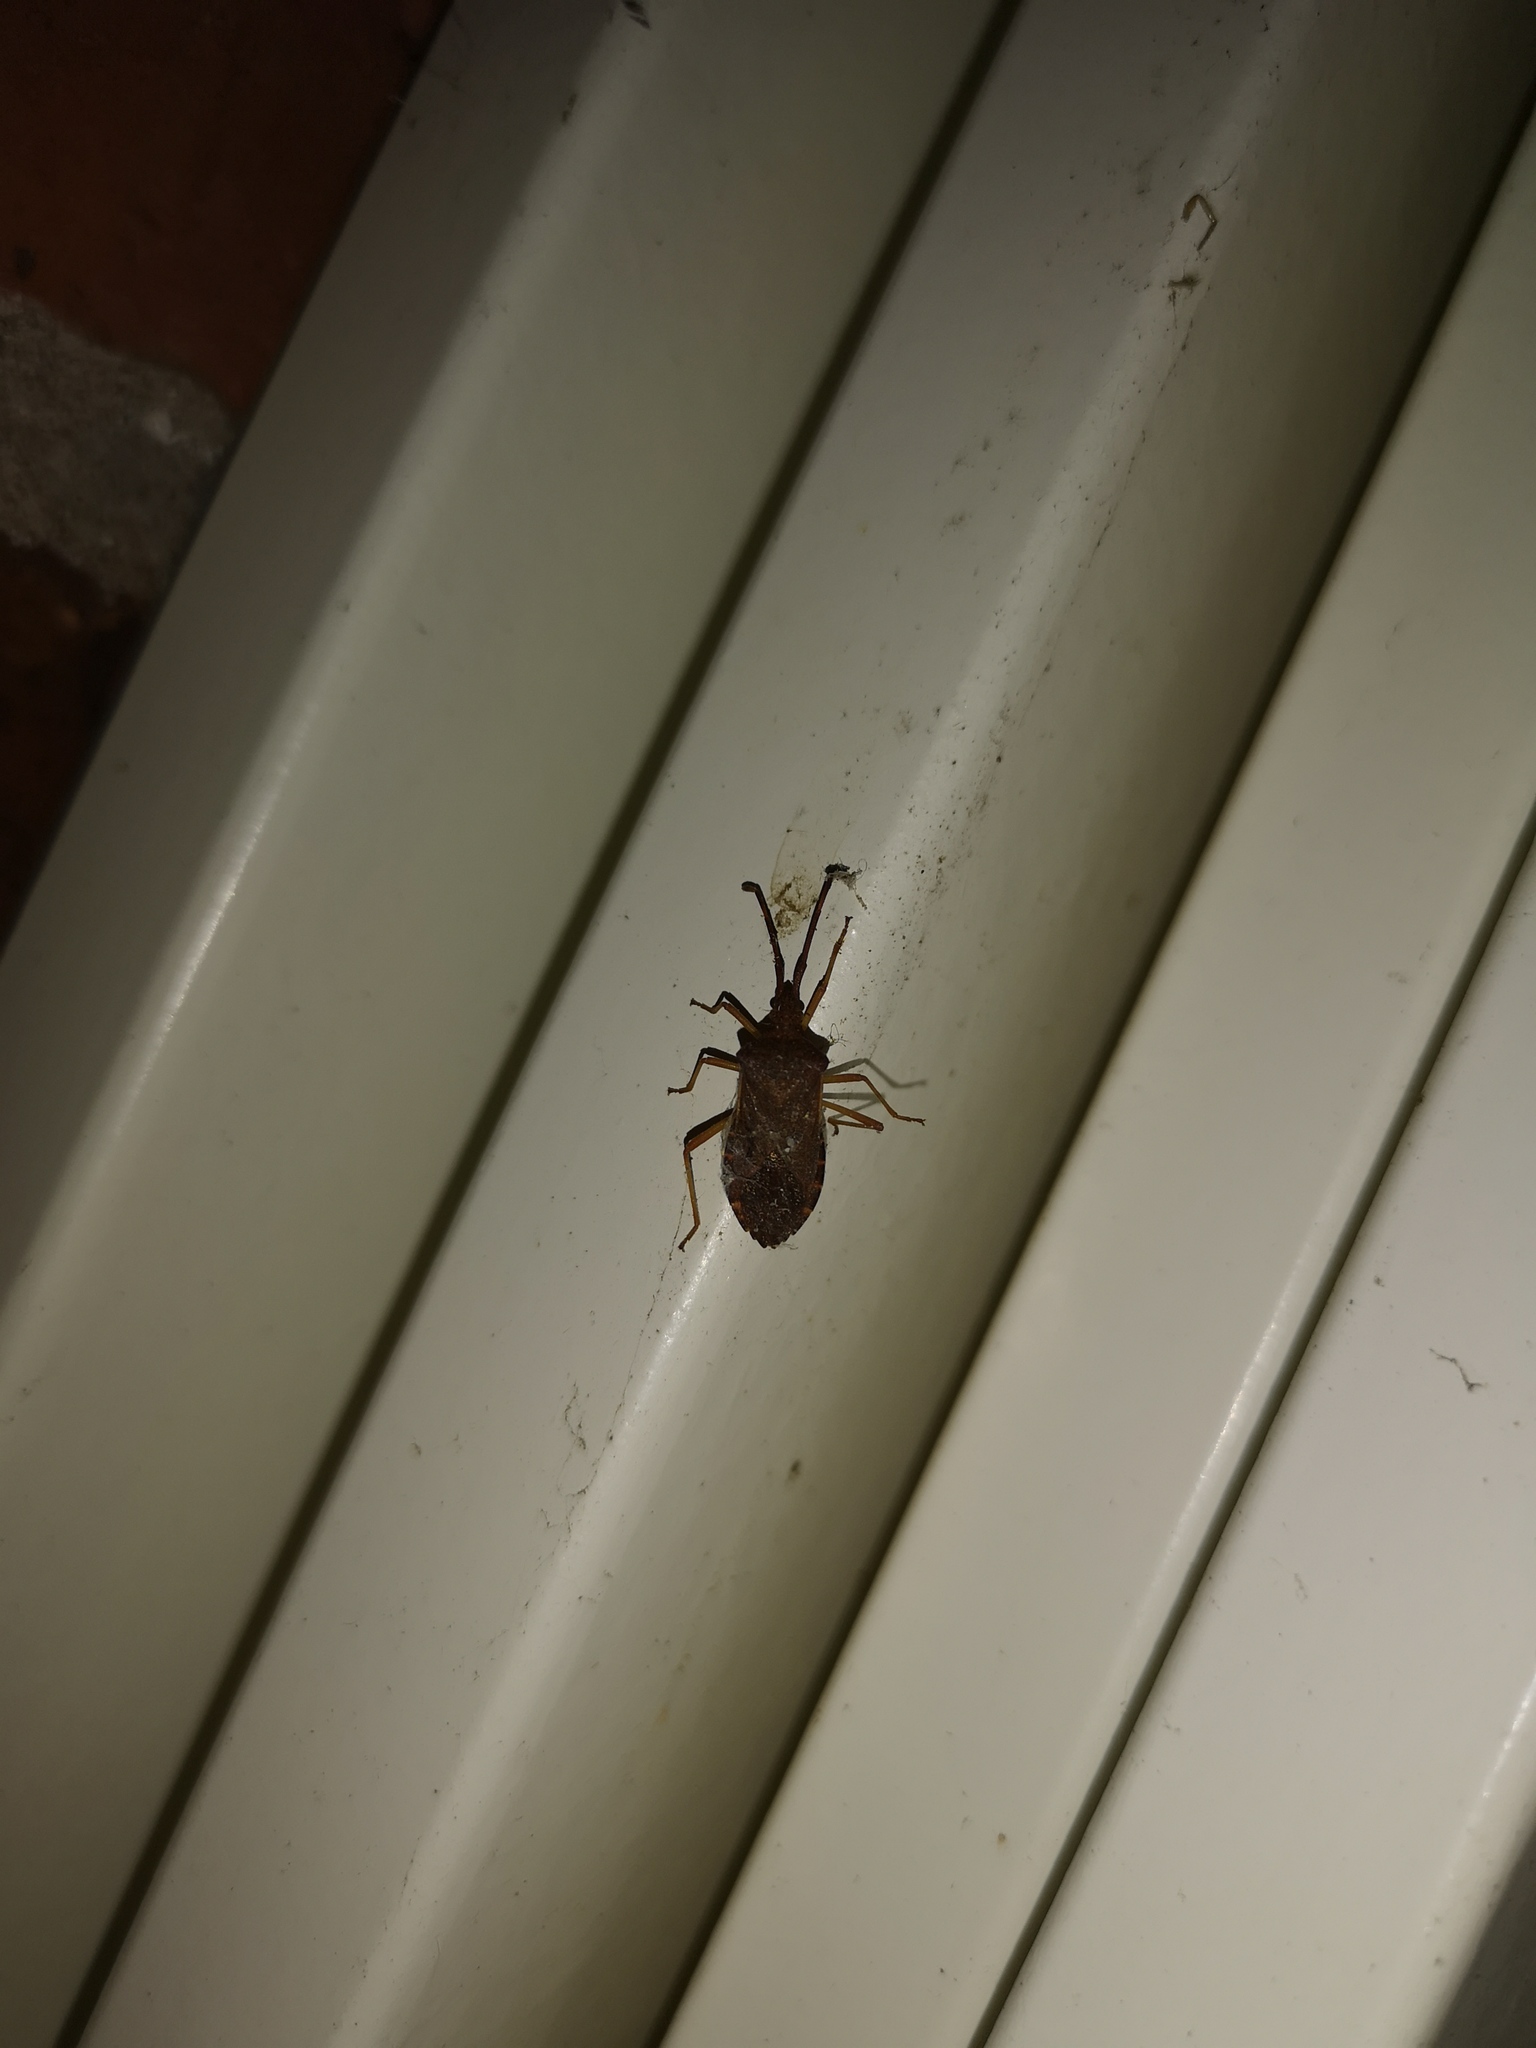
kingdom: Animalia
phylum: Arthropoda
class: Insecta
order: Hemiptera
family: Coreidae
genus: Gonocerus
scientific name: Gonocerus acuteangulatus
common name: Box bug
